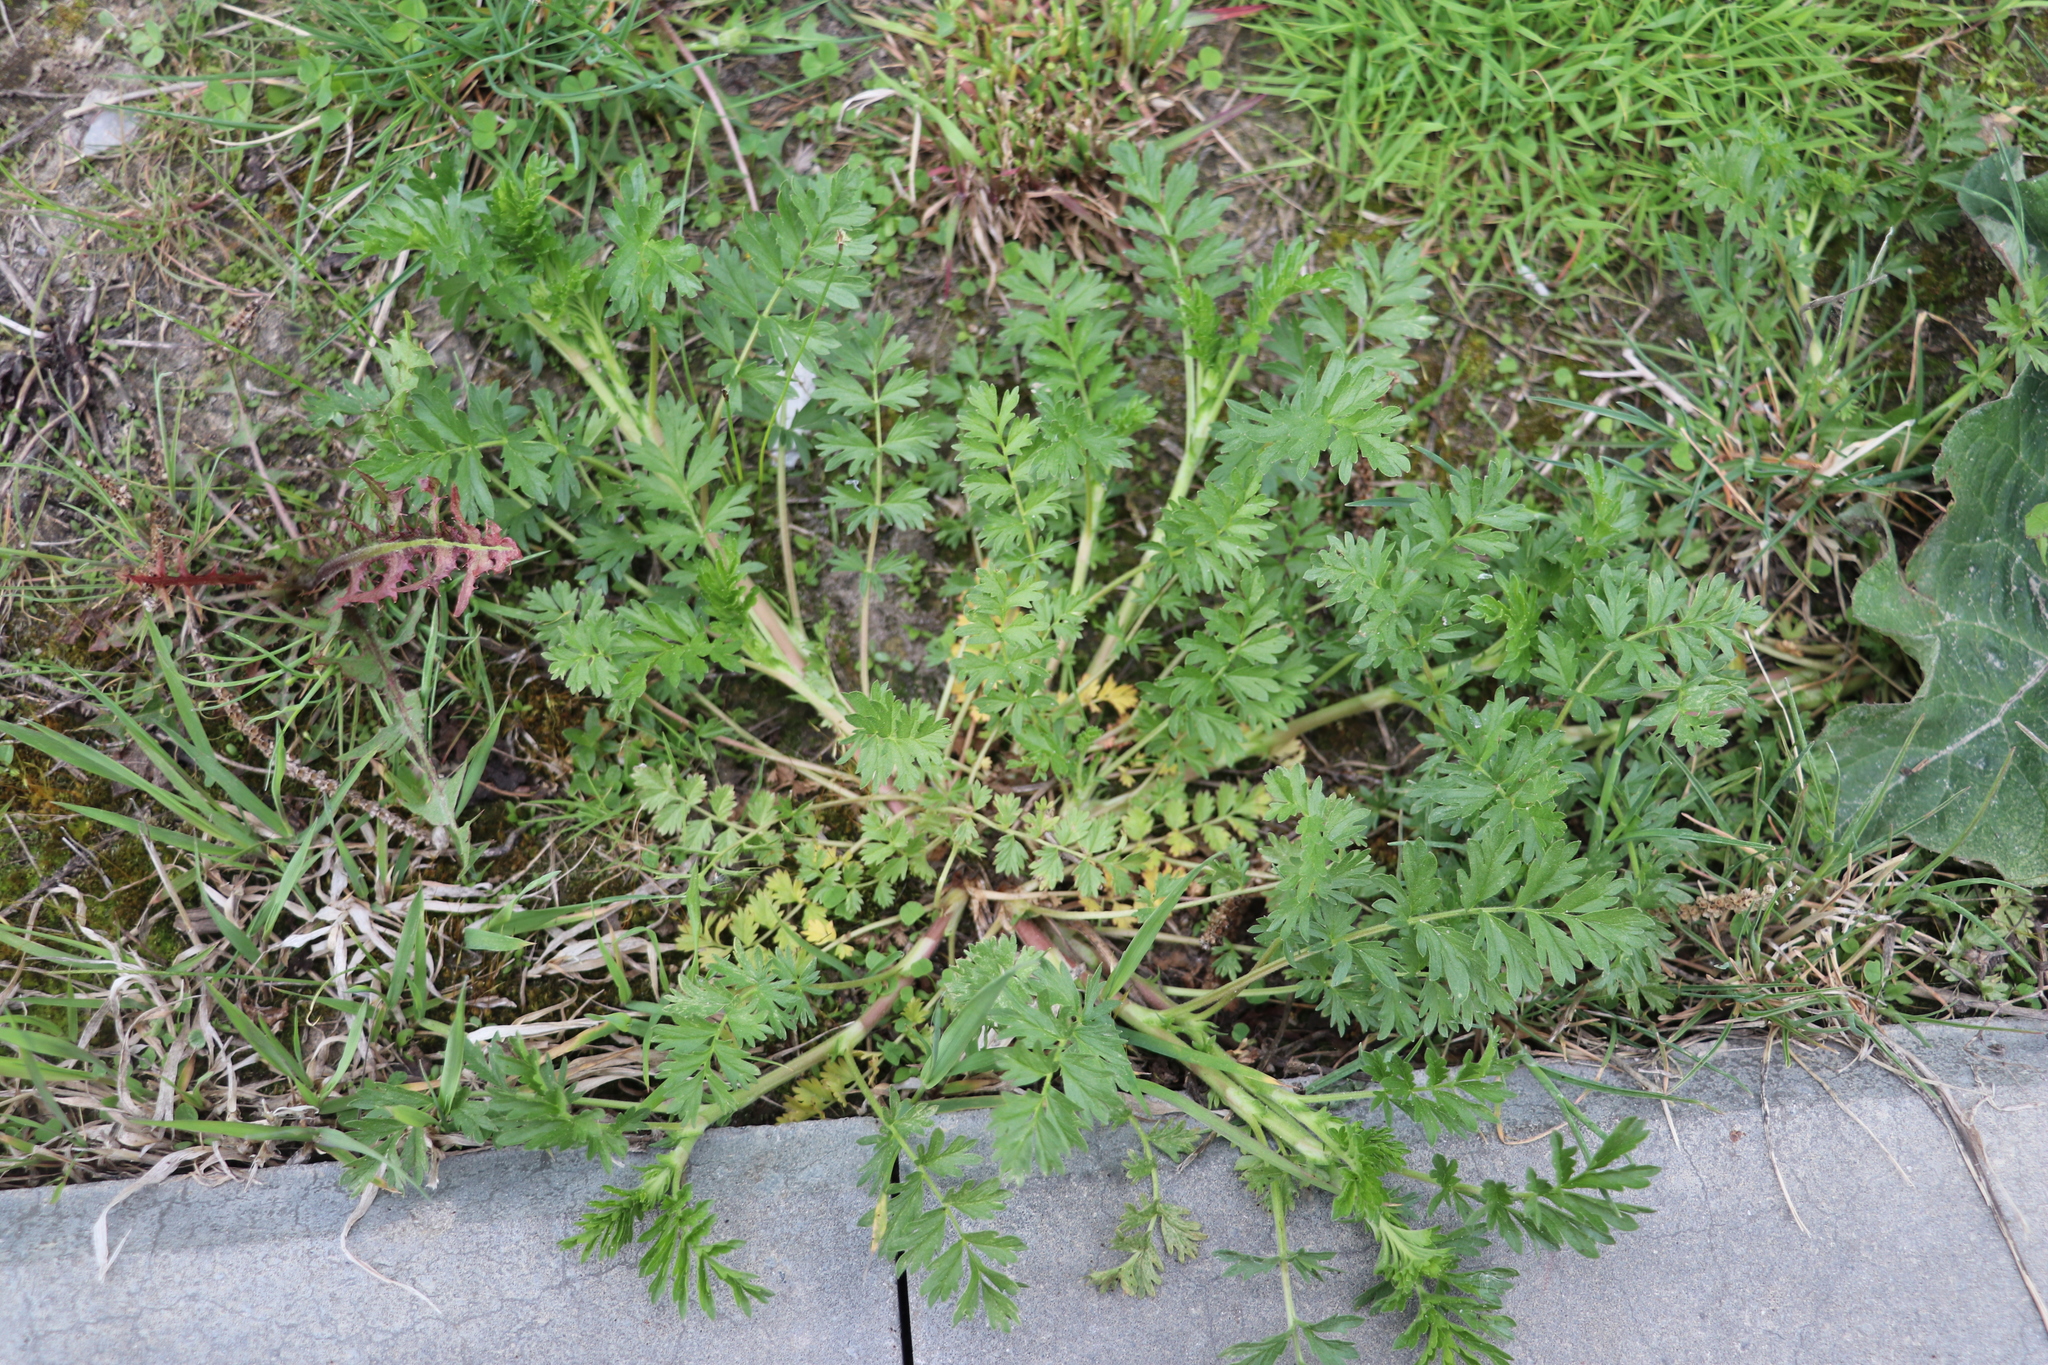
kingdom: Plantae
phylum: Tracheophyta
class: Magnoliopsida
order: Rosales
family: Rosaceae
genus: Potentilla
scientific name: Potentilla supina
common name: Prostrate cinquefoil
